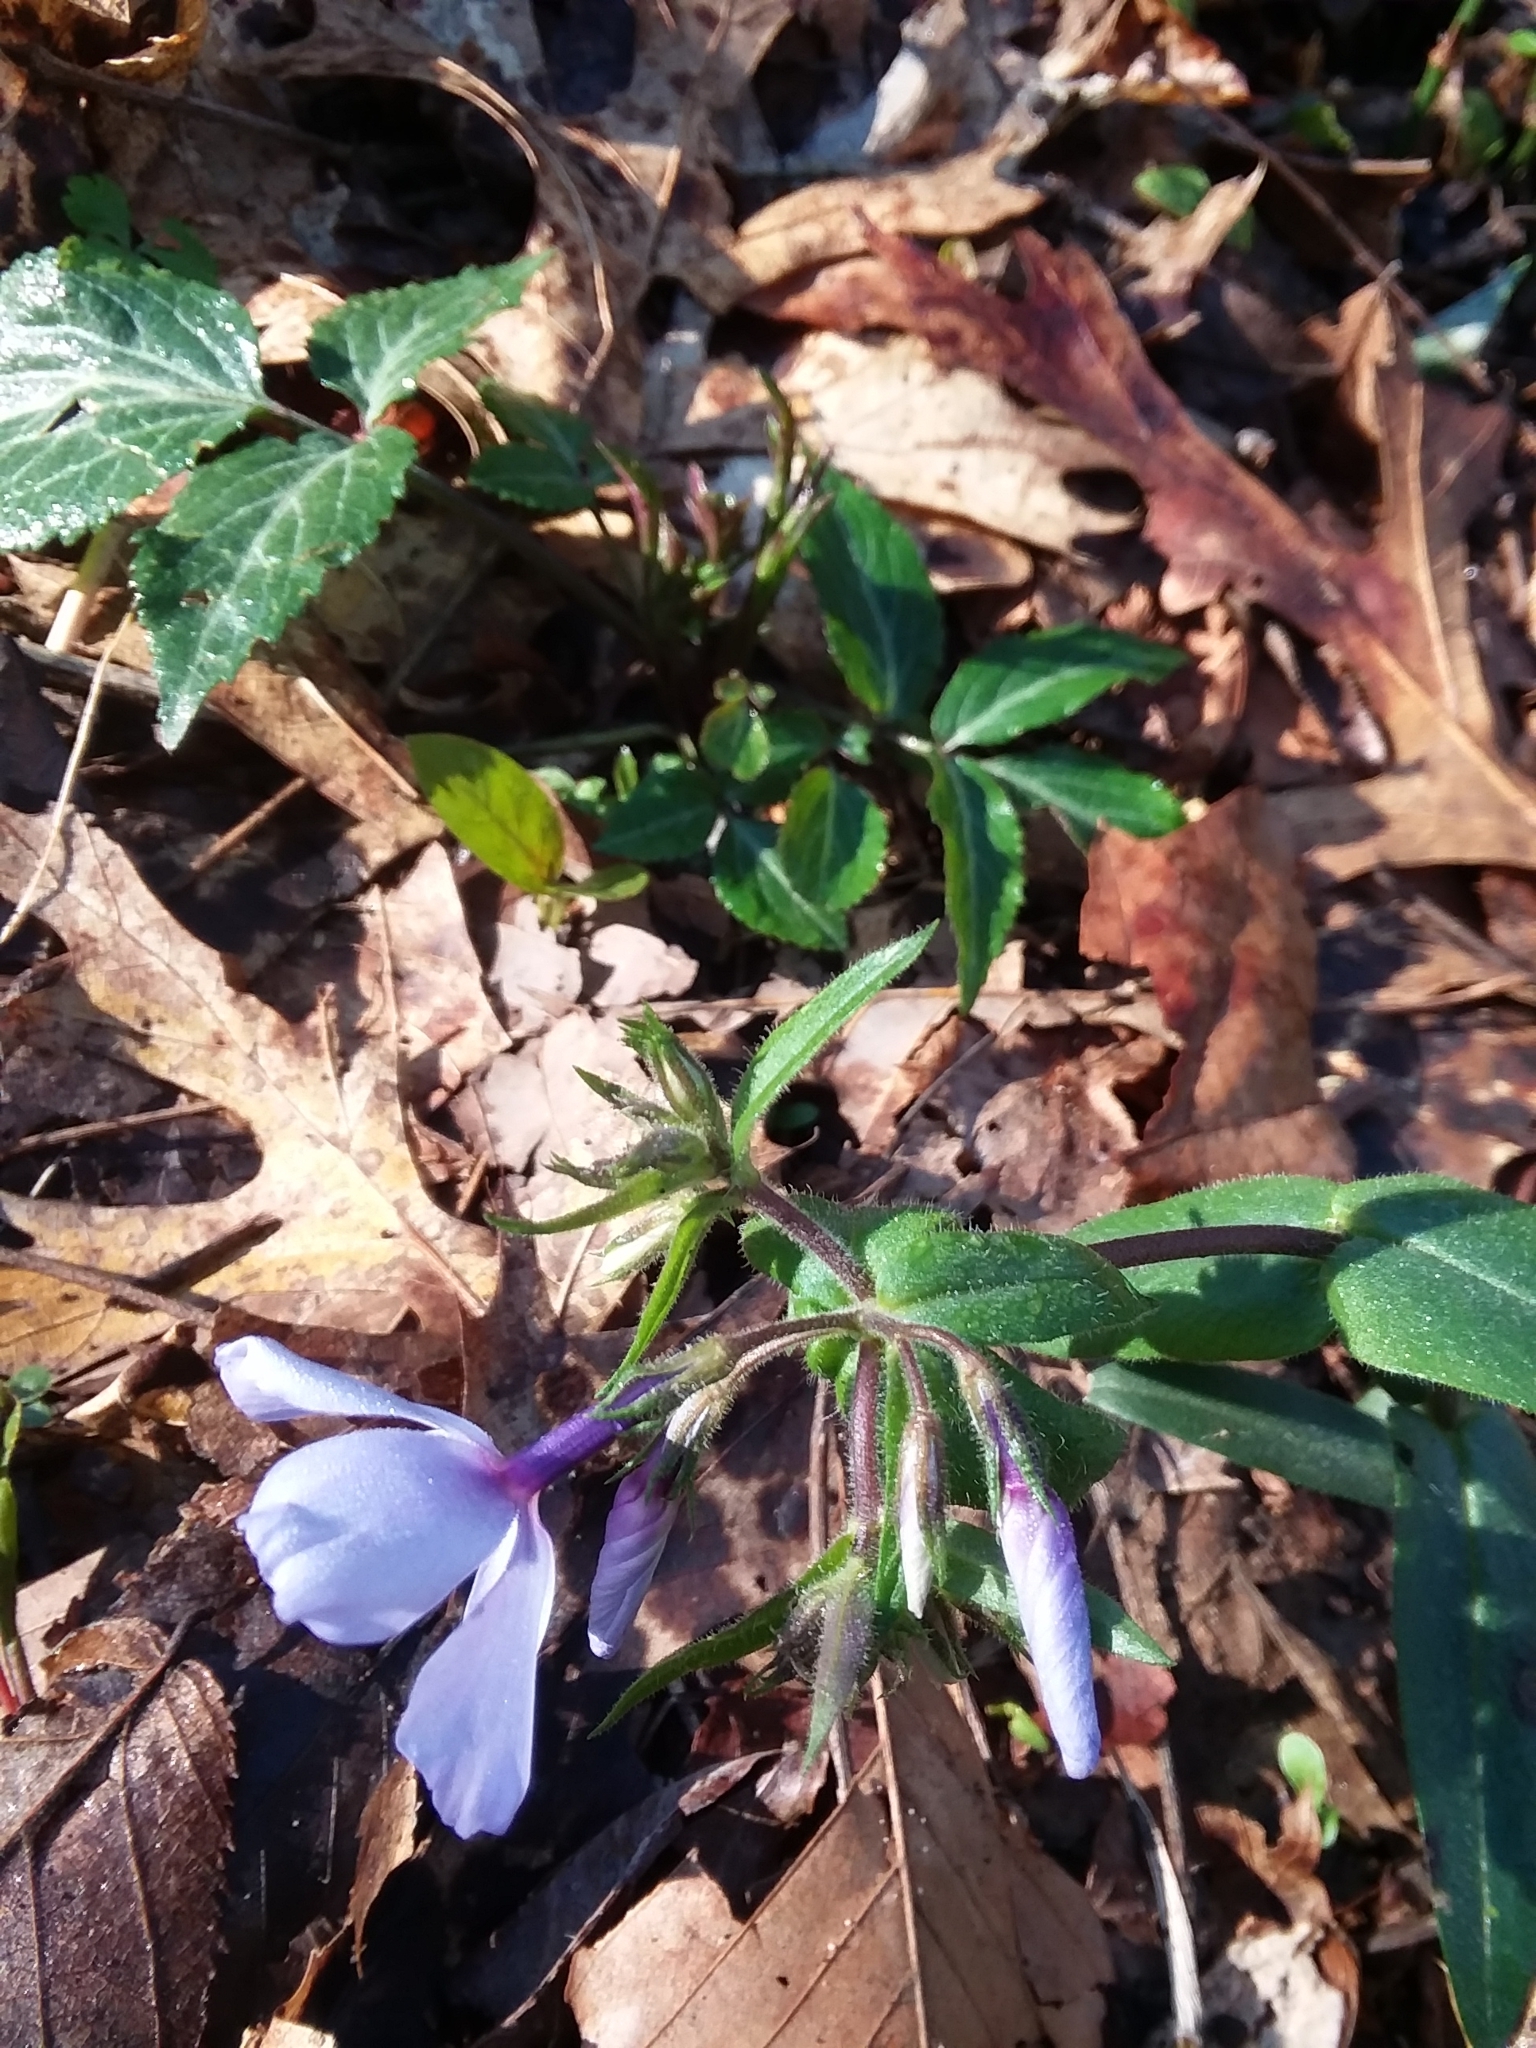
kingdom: Plantae
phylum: Tracheophyta
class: Magnoliopsida
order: Ericales
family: Polemoniaceae
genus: Phlox
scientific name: Phlox divaricata
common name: Blue phlox
